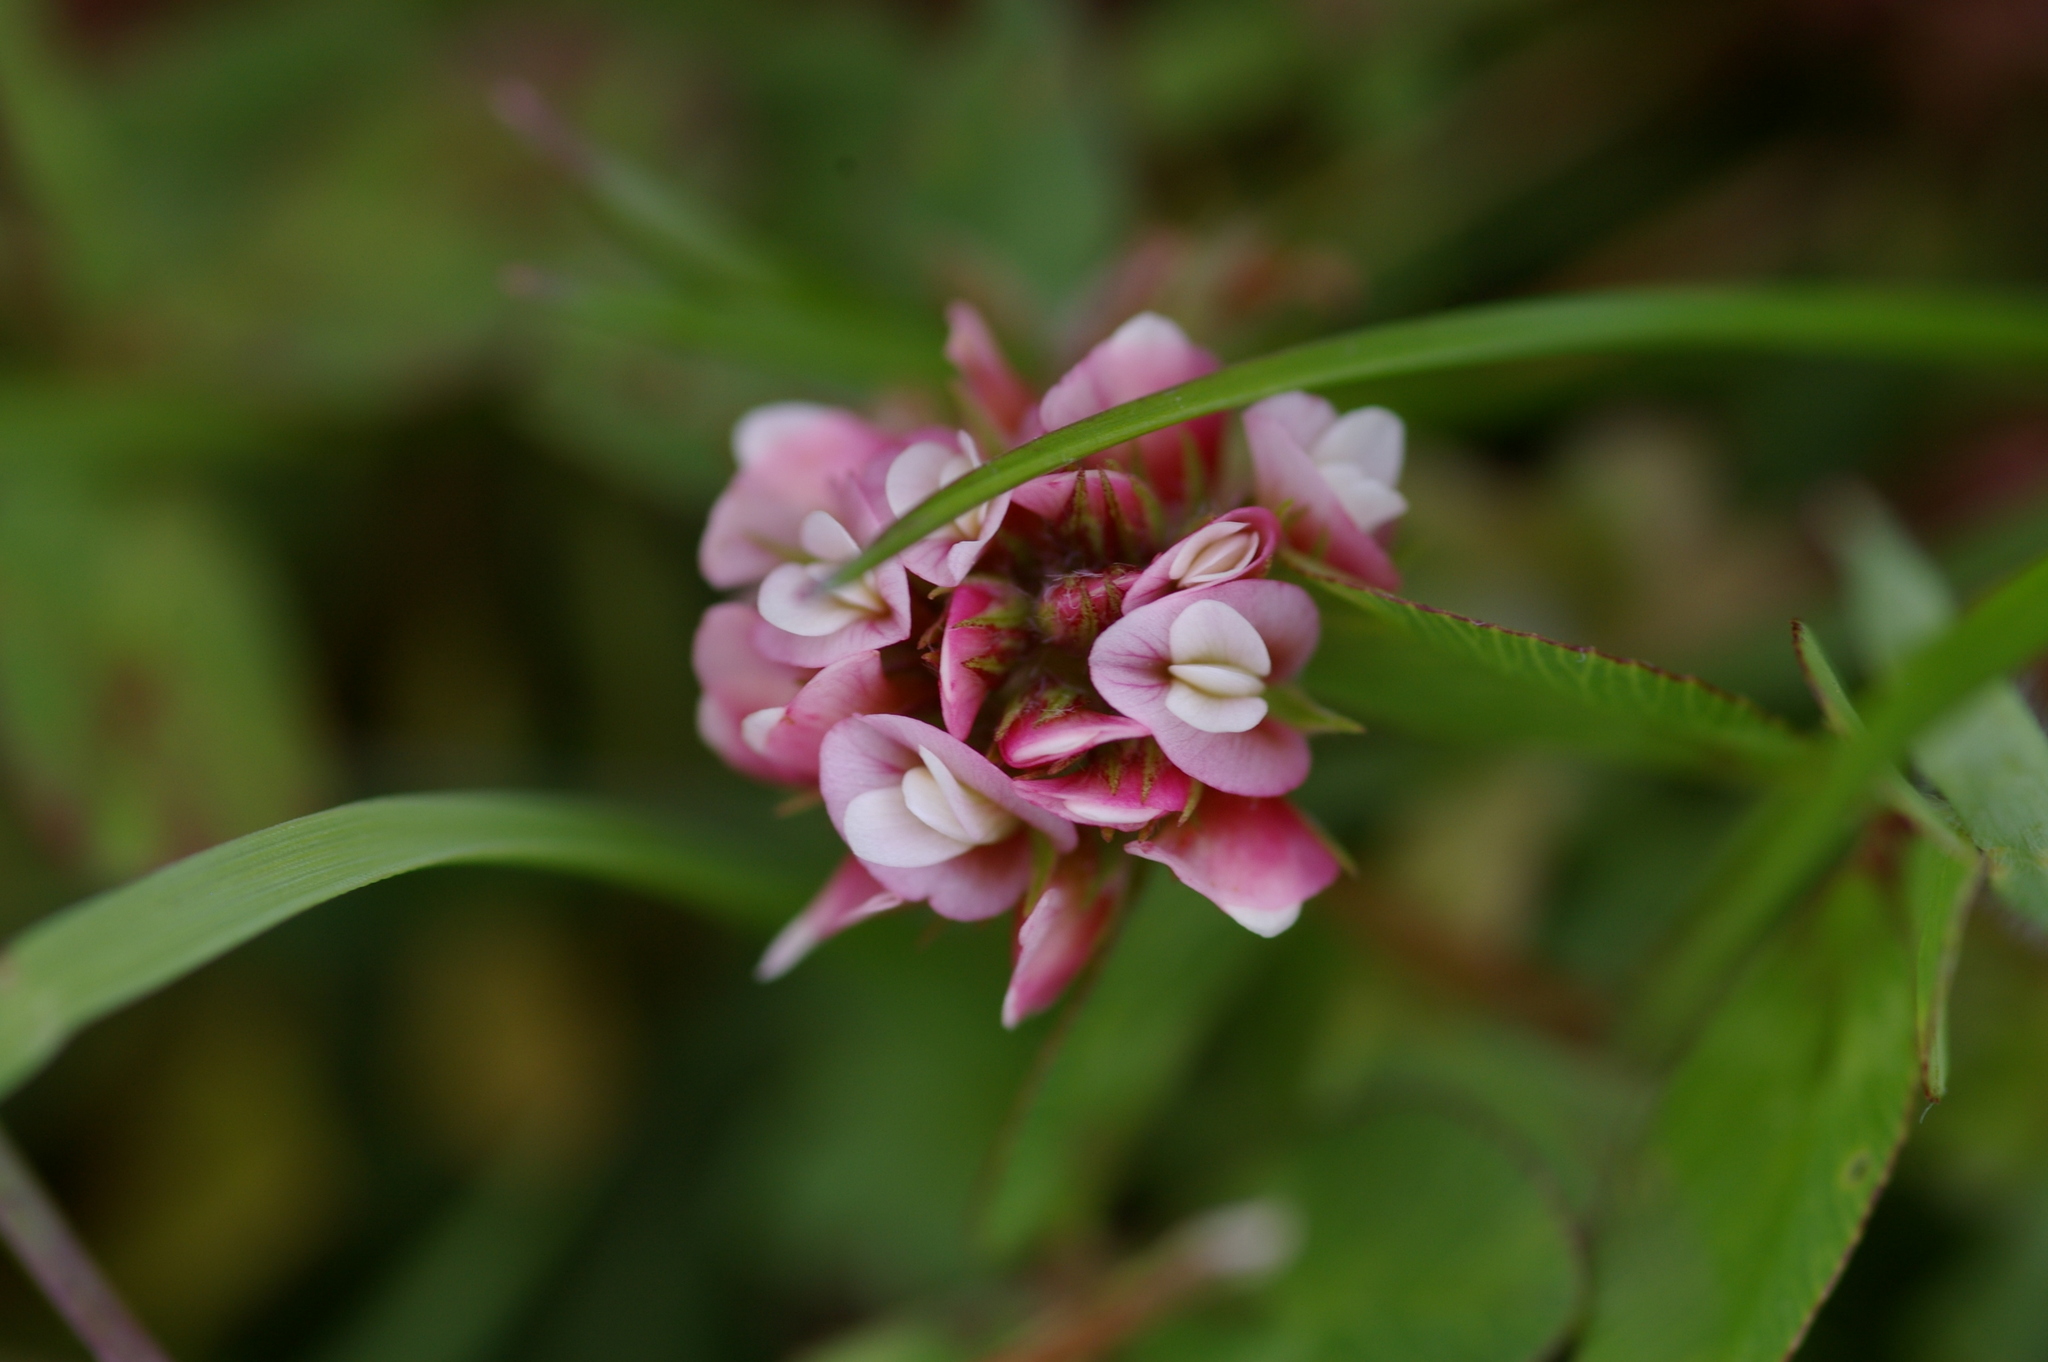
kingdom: Plantae
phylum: Tracheophyta
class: Magnoliopsida
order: Fabales
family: Fabaceae
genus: Trifolium
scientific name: Trifolium amabile
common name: Aztec clover
